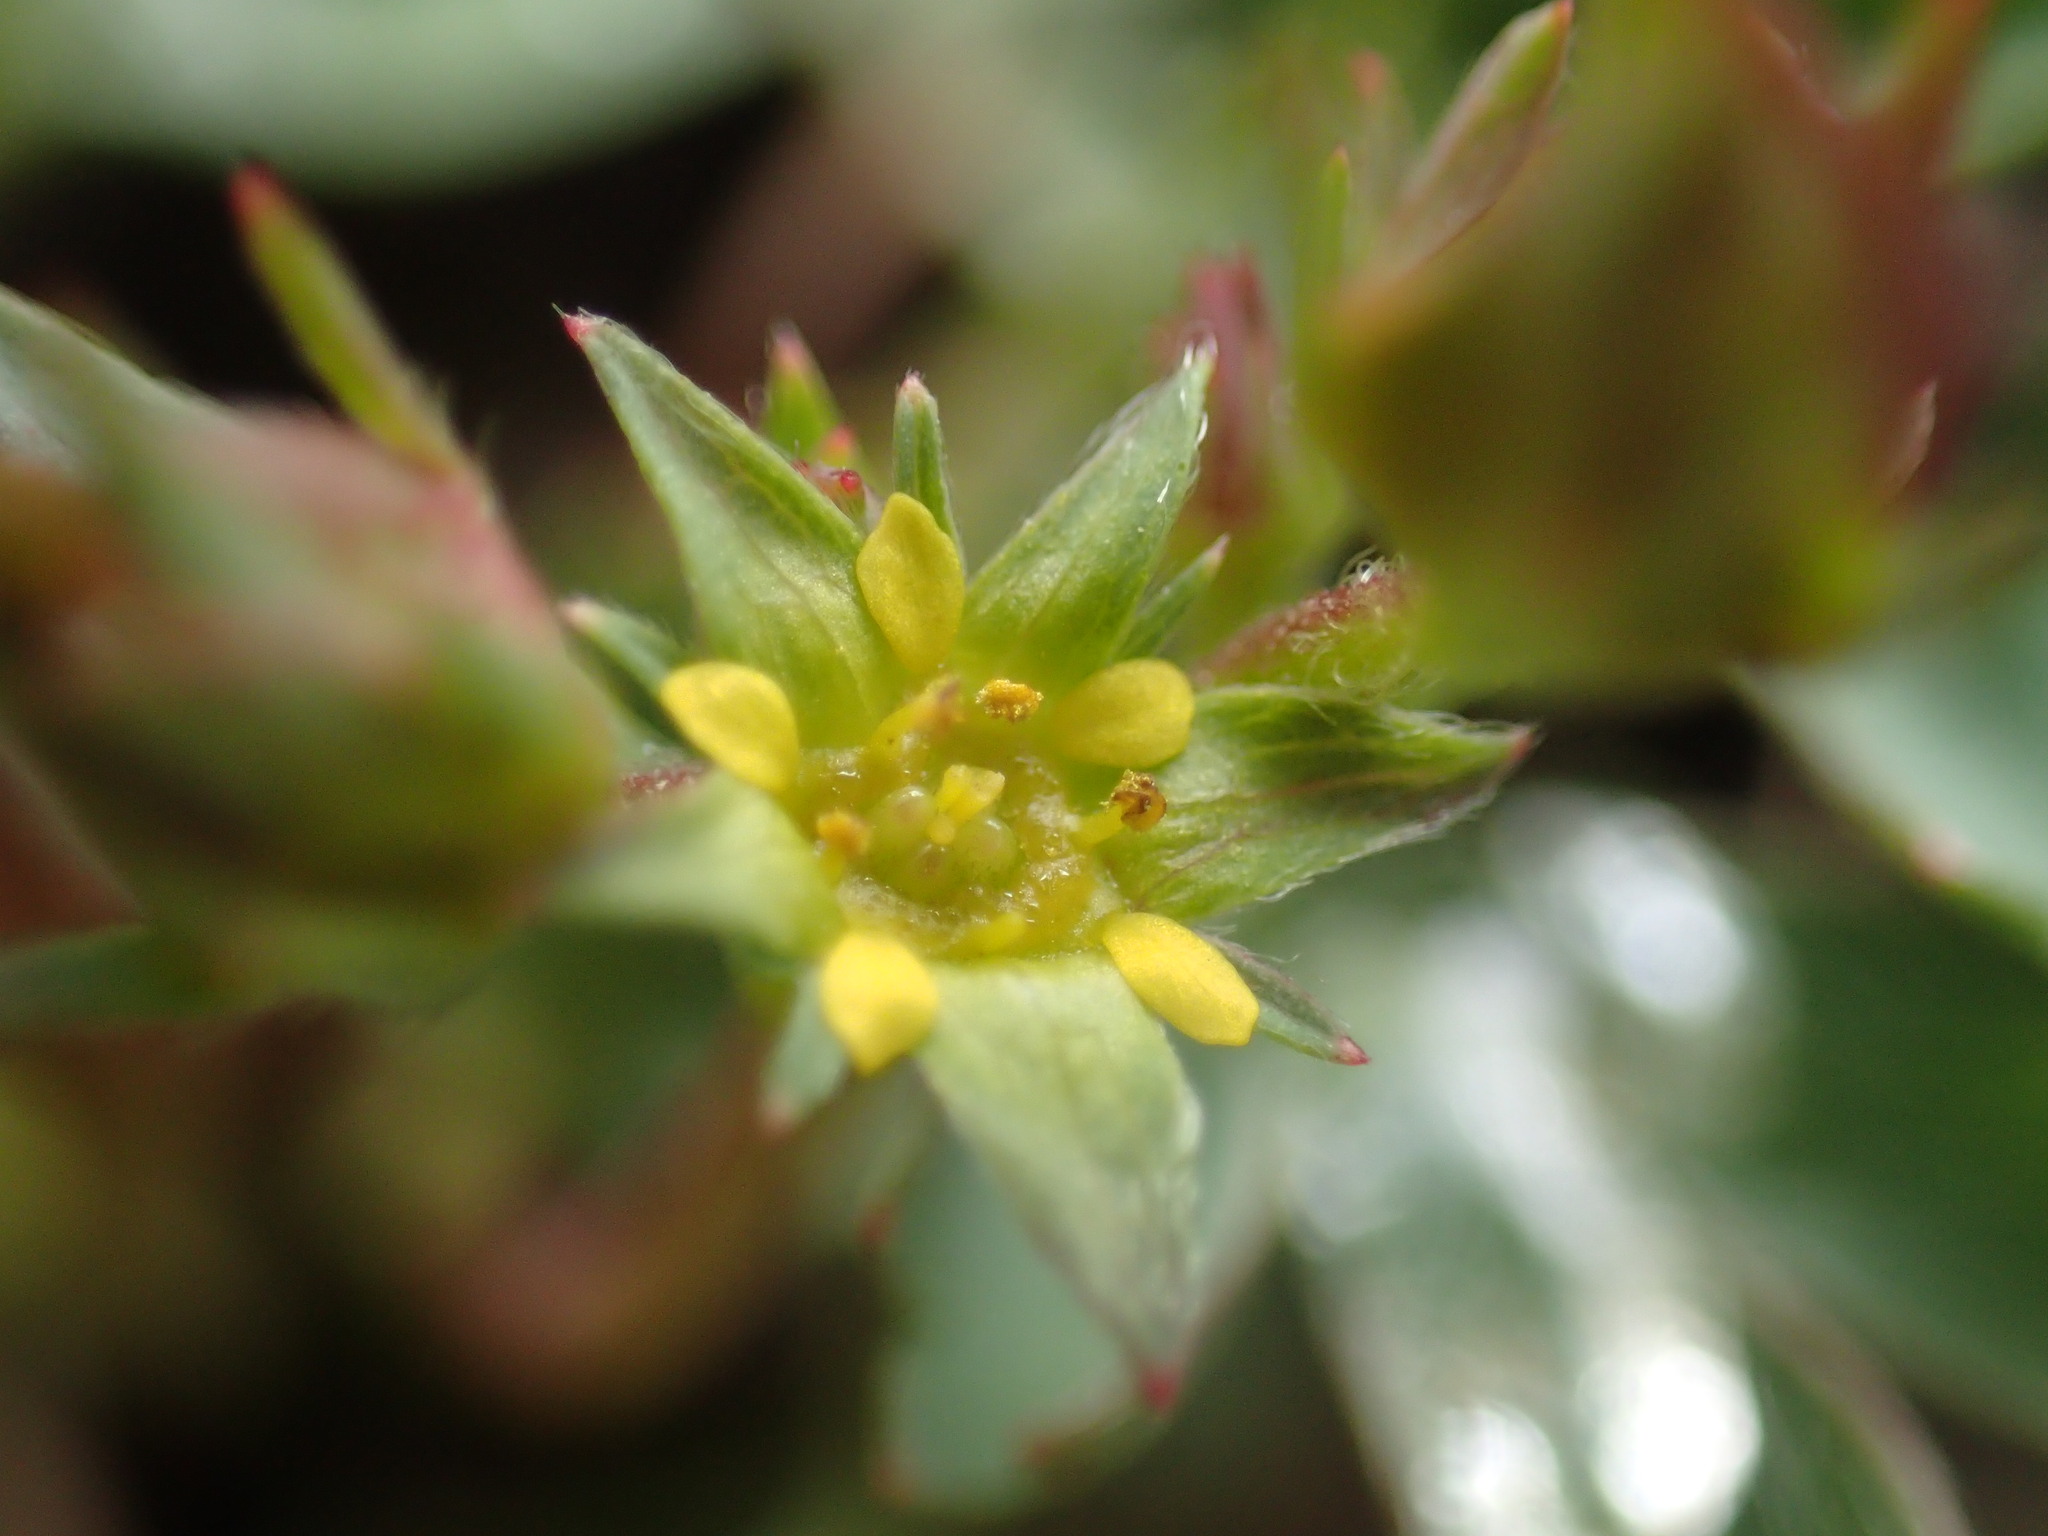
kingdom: Plantae
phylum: Tracheophyta
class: Magnoliopsida
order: Rosales
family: Rosaceae
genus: Sibbaldia
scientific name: Sibbaldia procumbens
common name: Creeping sibbaldia
